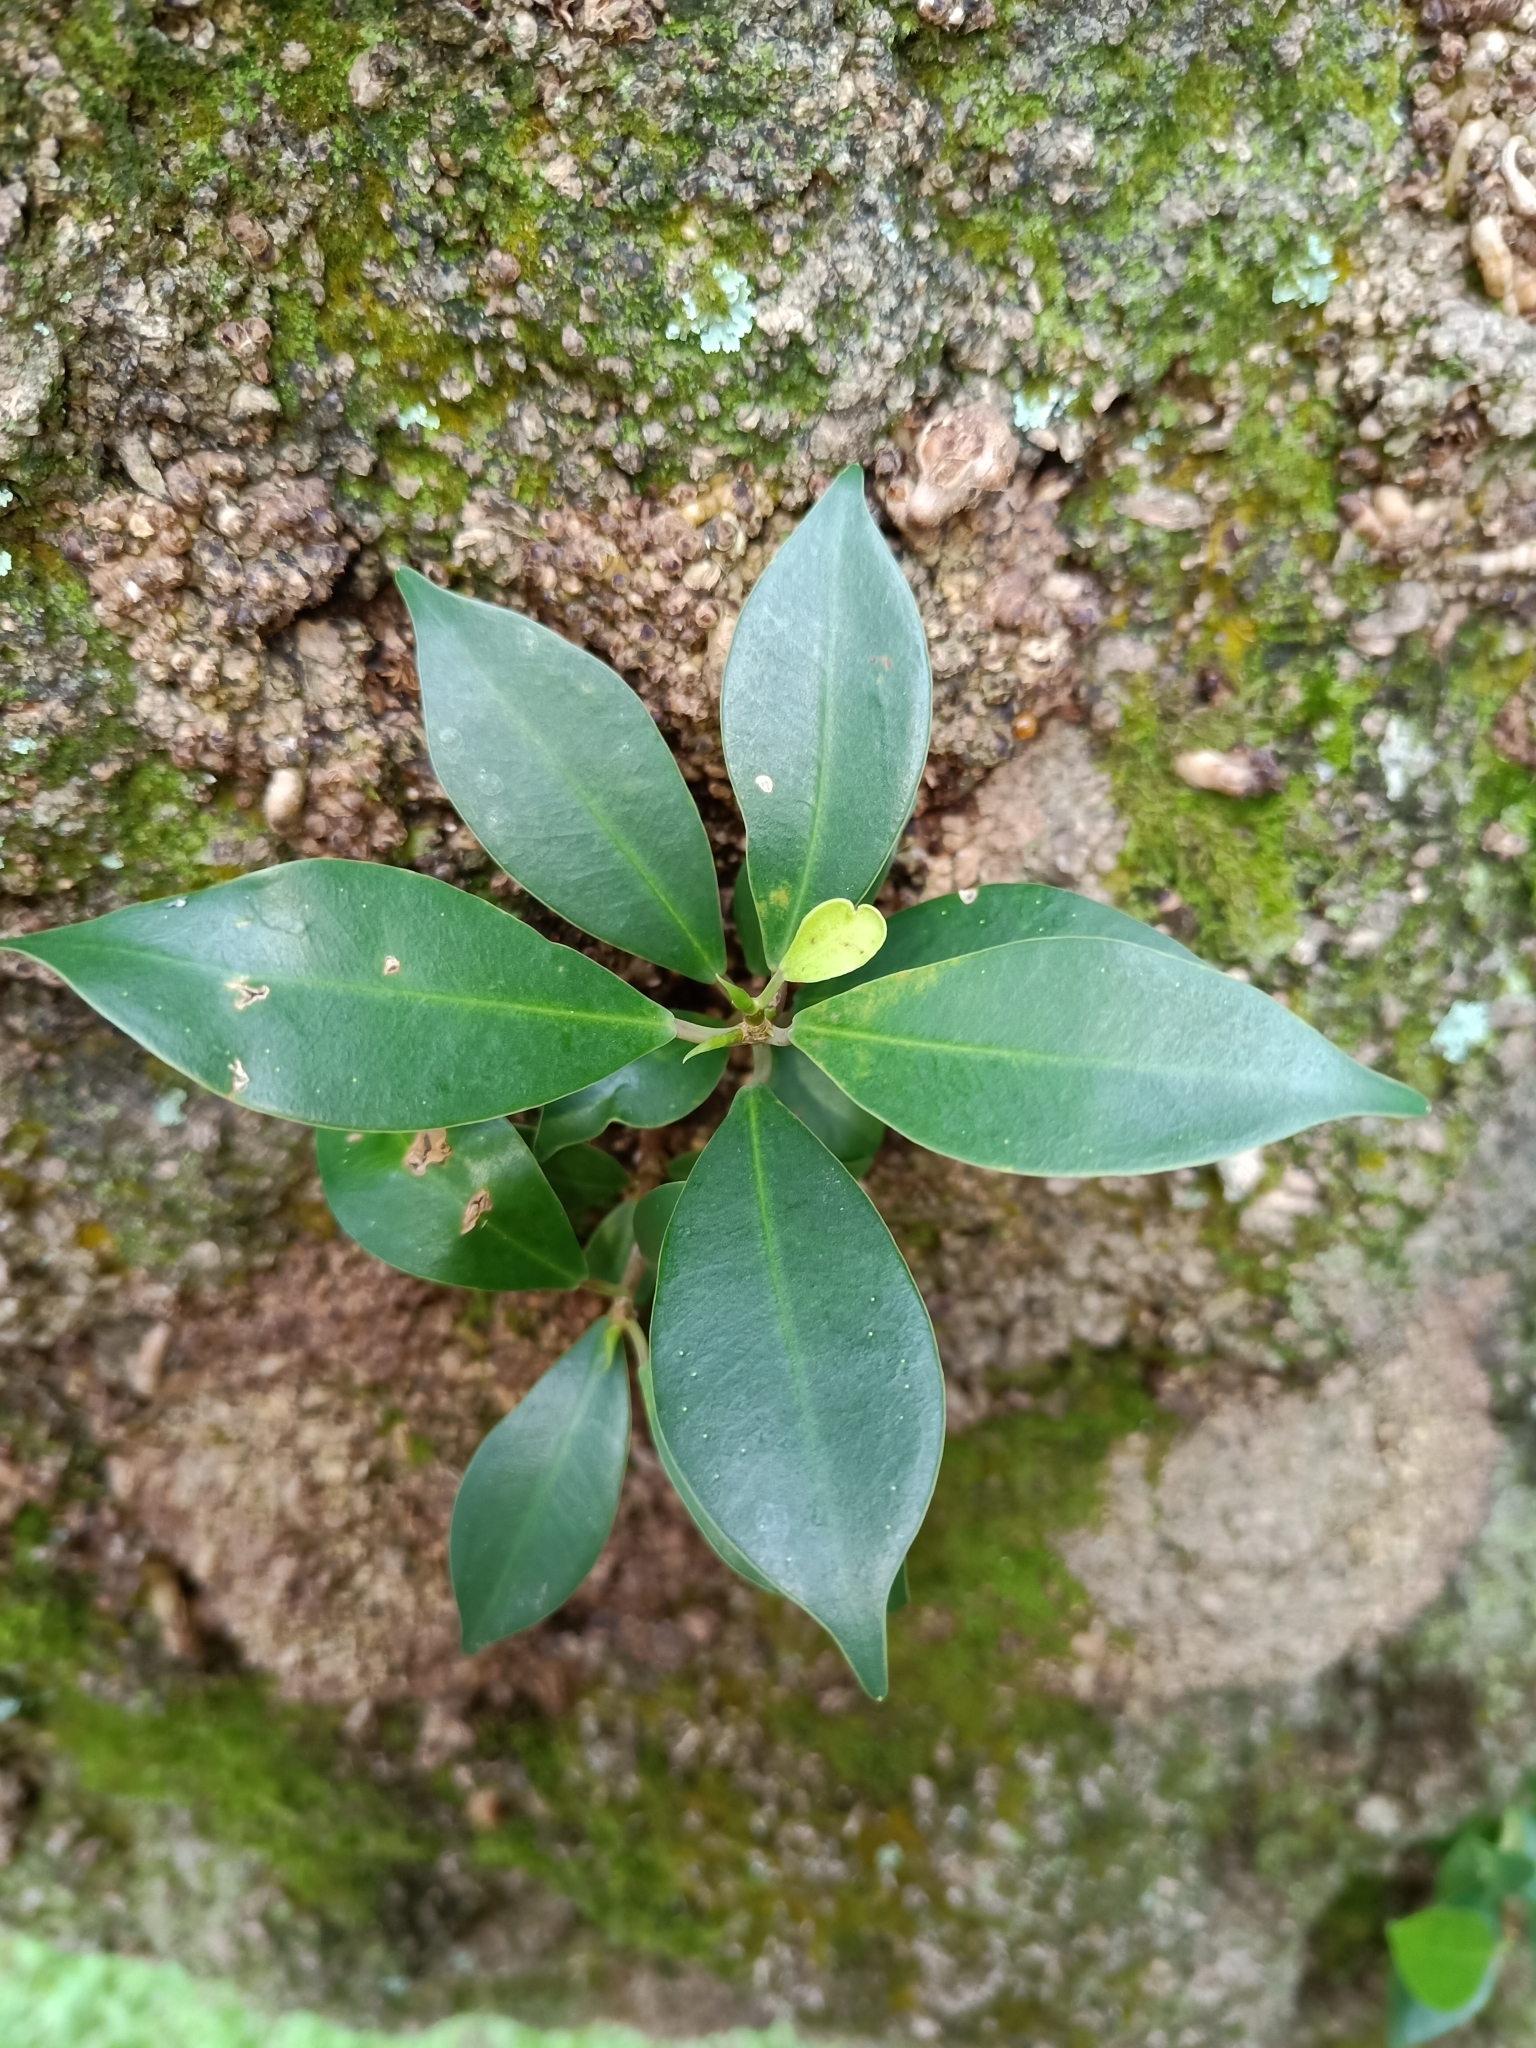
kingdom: Plantae
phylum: Tracheophyta
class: Magnoliopsida
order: Rosales
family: Moraceae
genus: Ficus
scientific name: Ficus microcarpa
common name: Chinese banyan
